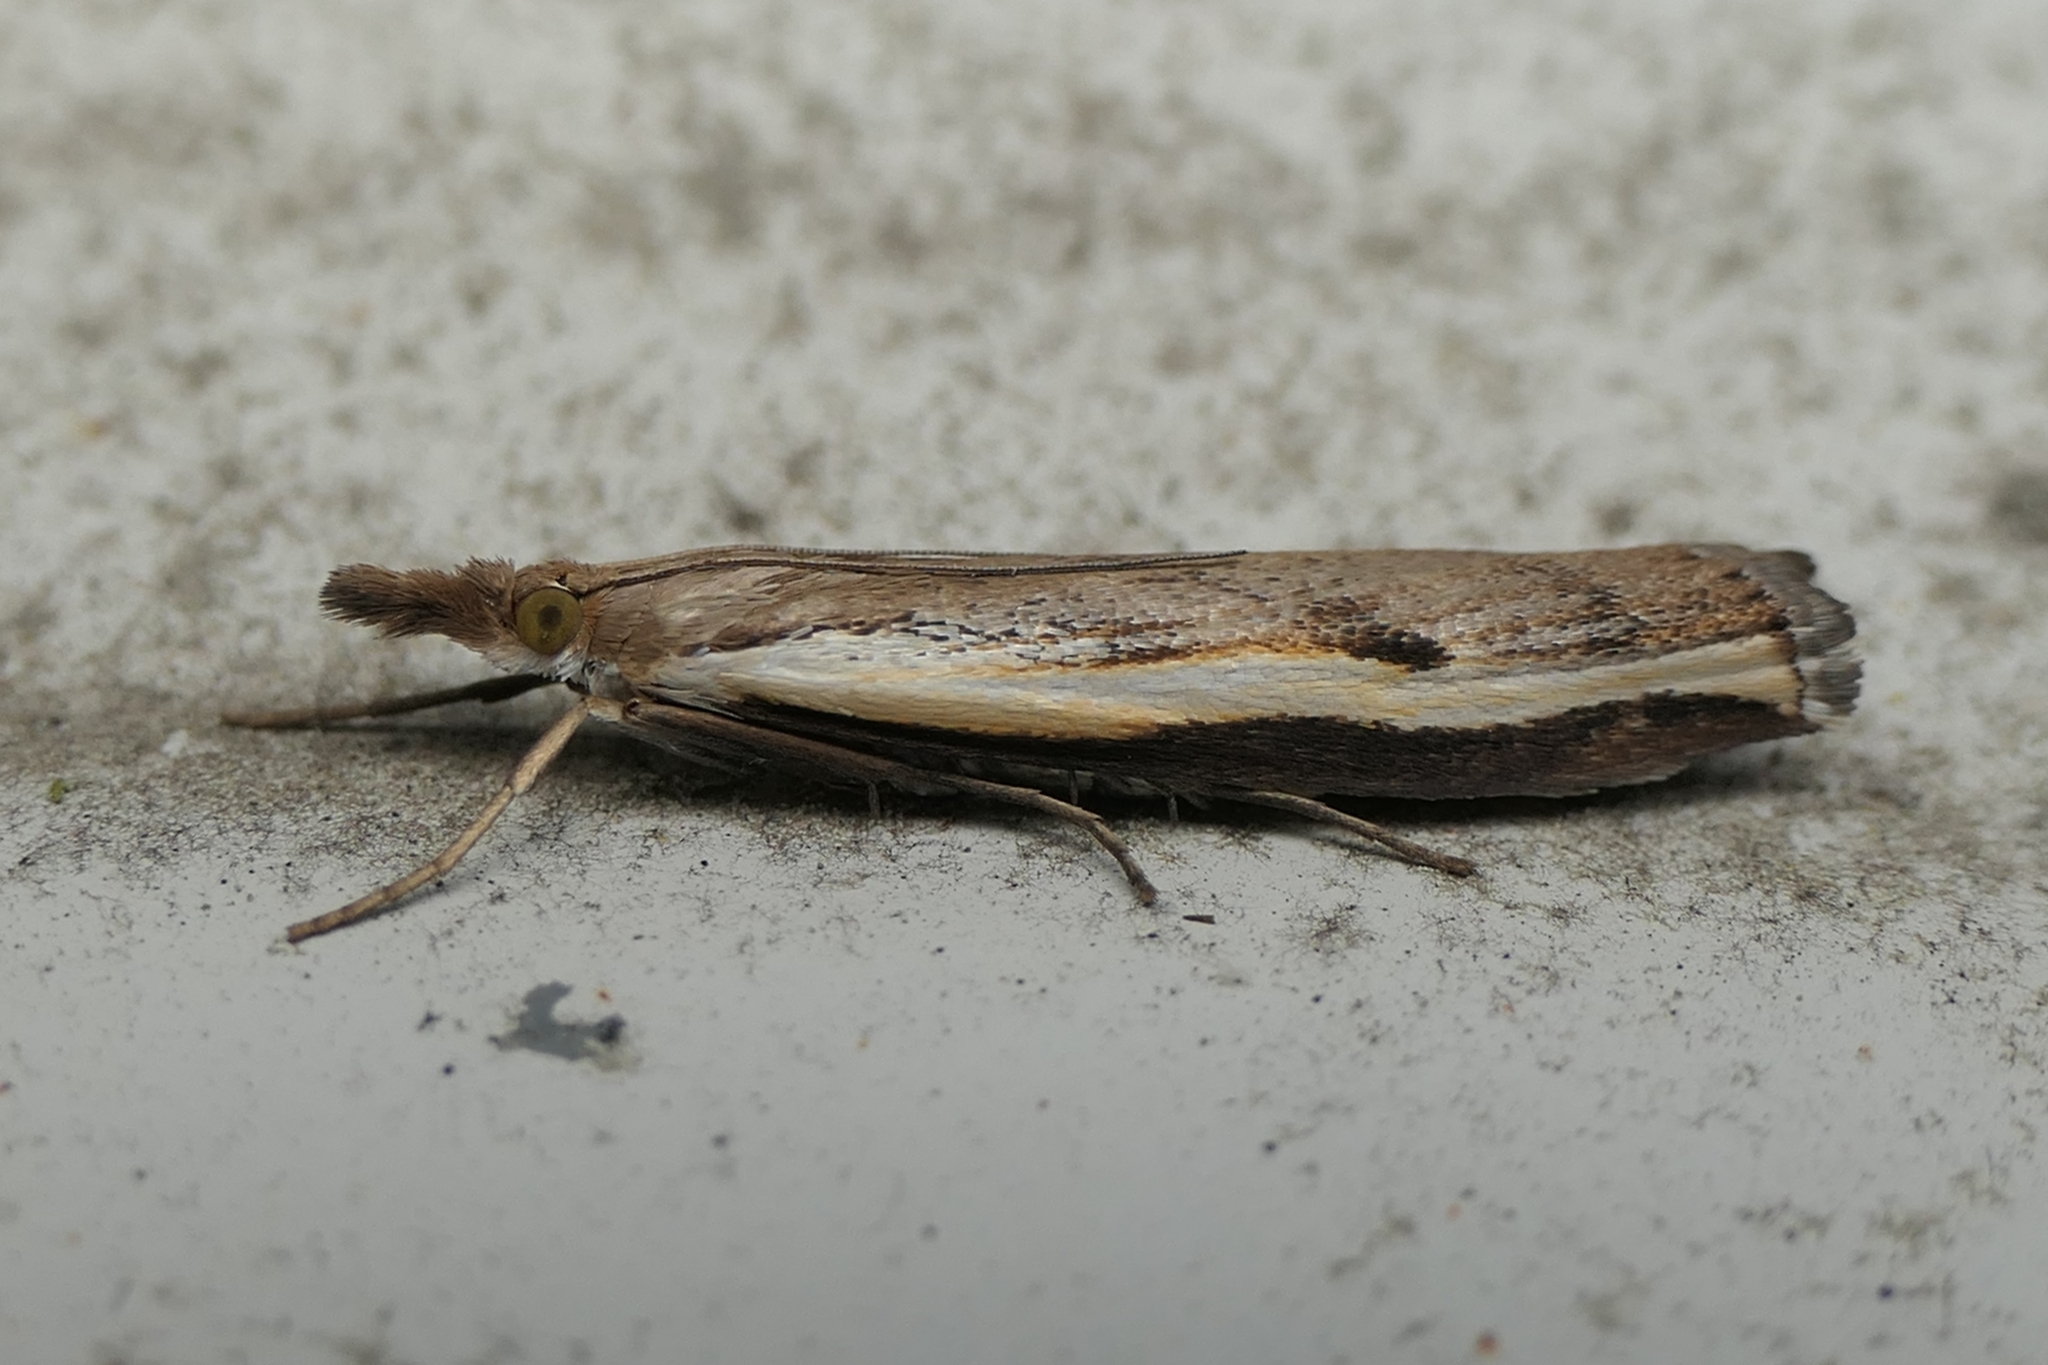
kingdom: Animalia
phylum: Arthropoda
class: Insecta
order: Lepidoptera
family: Crambidae
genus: Orocrambus
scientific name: Orocrambus flexuosellus
